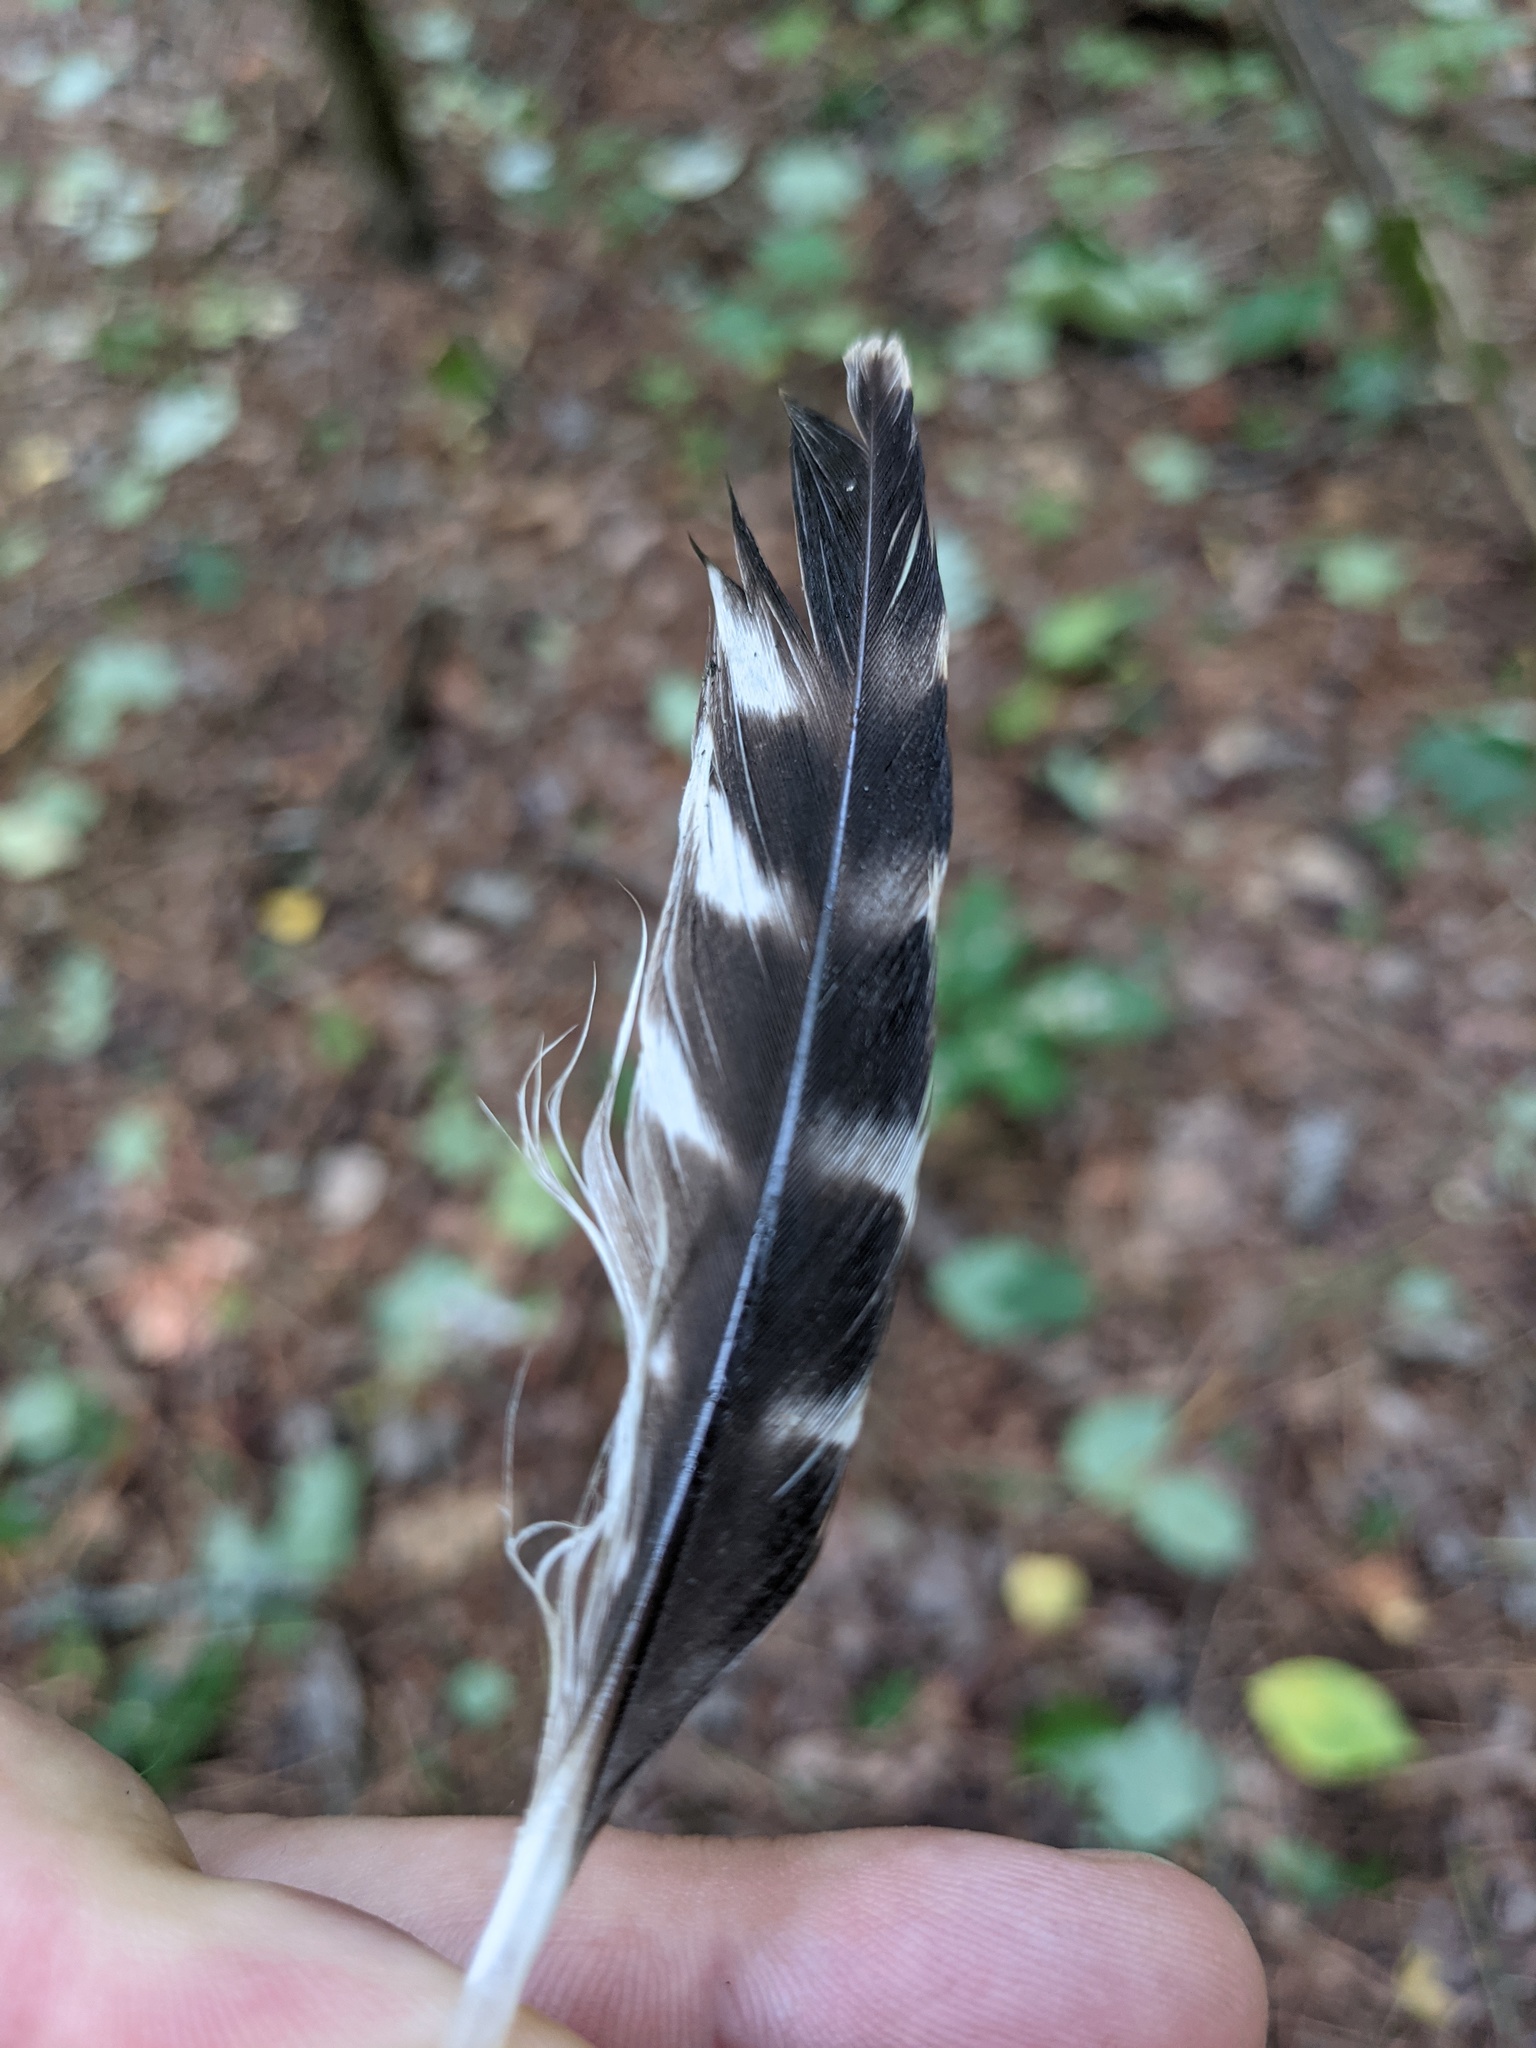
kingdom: Animalia
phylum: Chordata
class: Aves
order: Accipitriformes
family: Accipitridae
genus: Buteo
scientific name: Buteo lineatus
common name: Red-shouldered hawk
